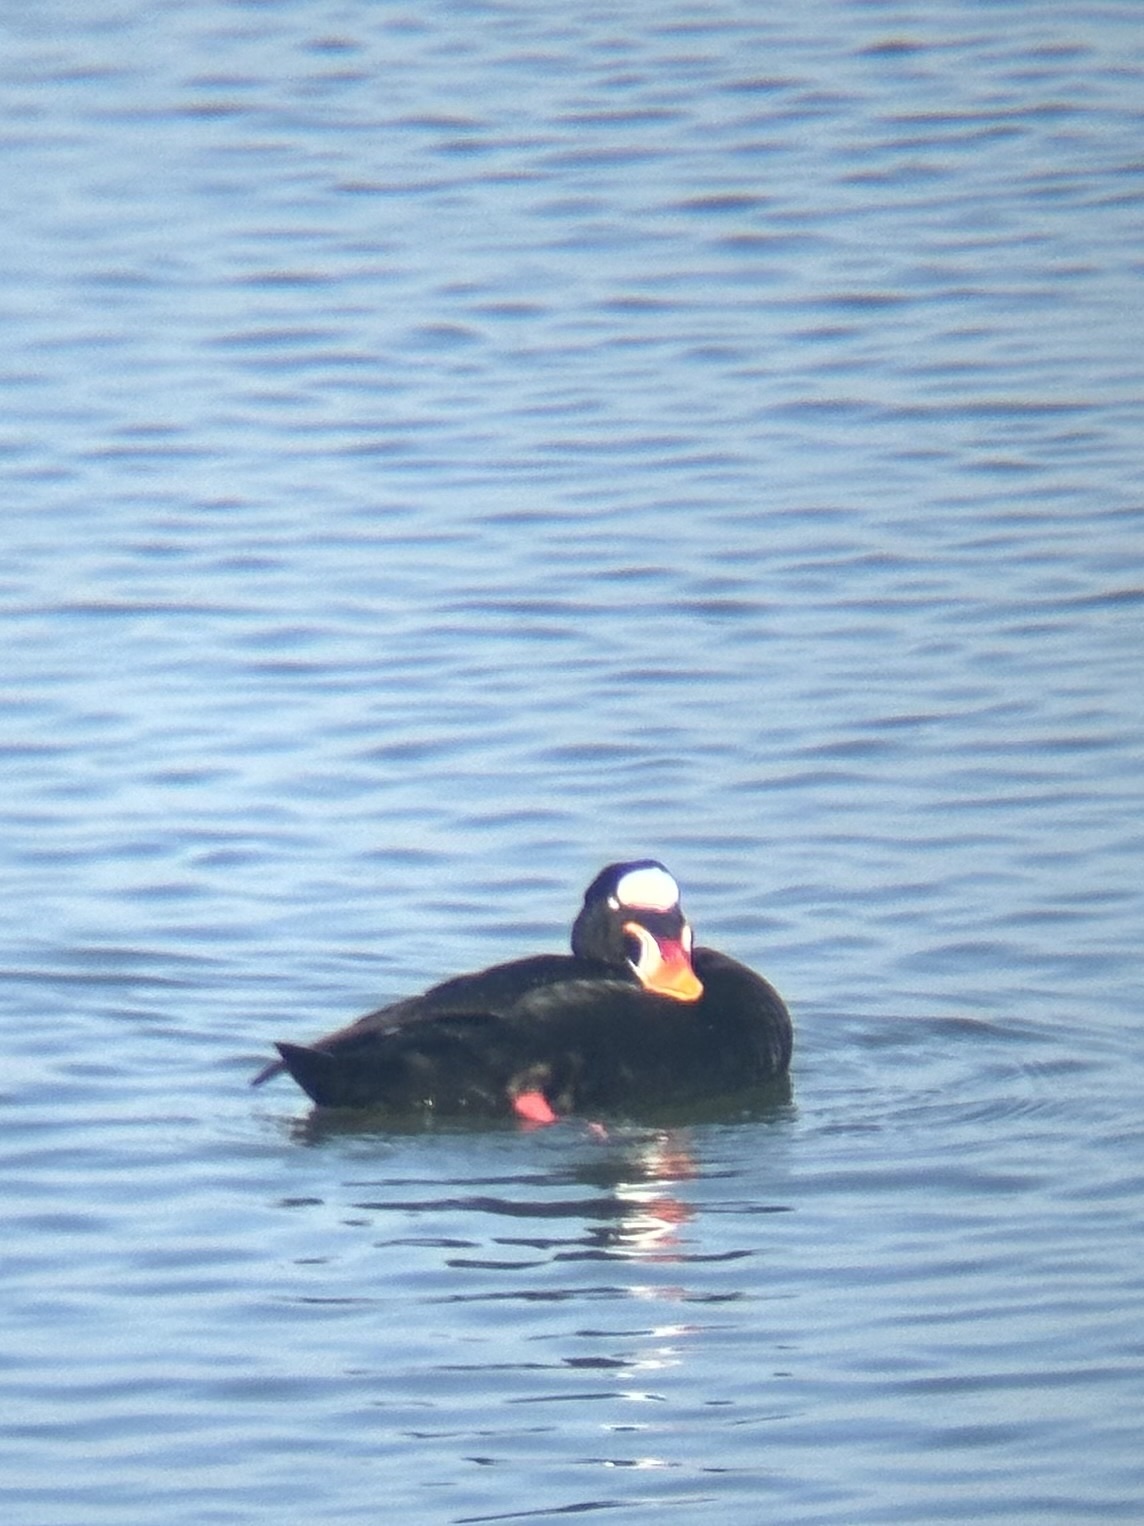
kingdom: Animalia
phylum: Chordata
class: Aves
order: Anseriformes
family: Anatidae
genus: Melanitta
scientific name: Melanitta perspicillata
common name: Surf scoter
